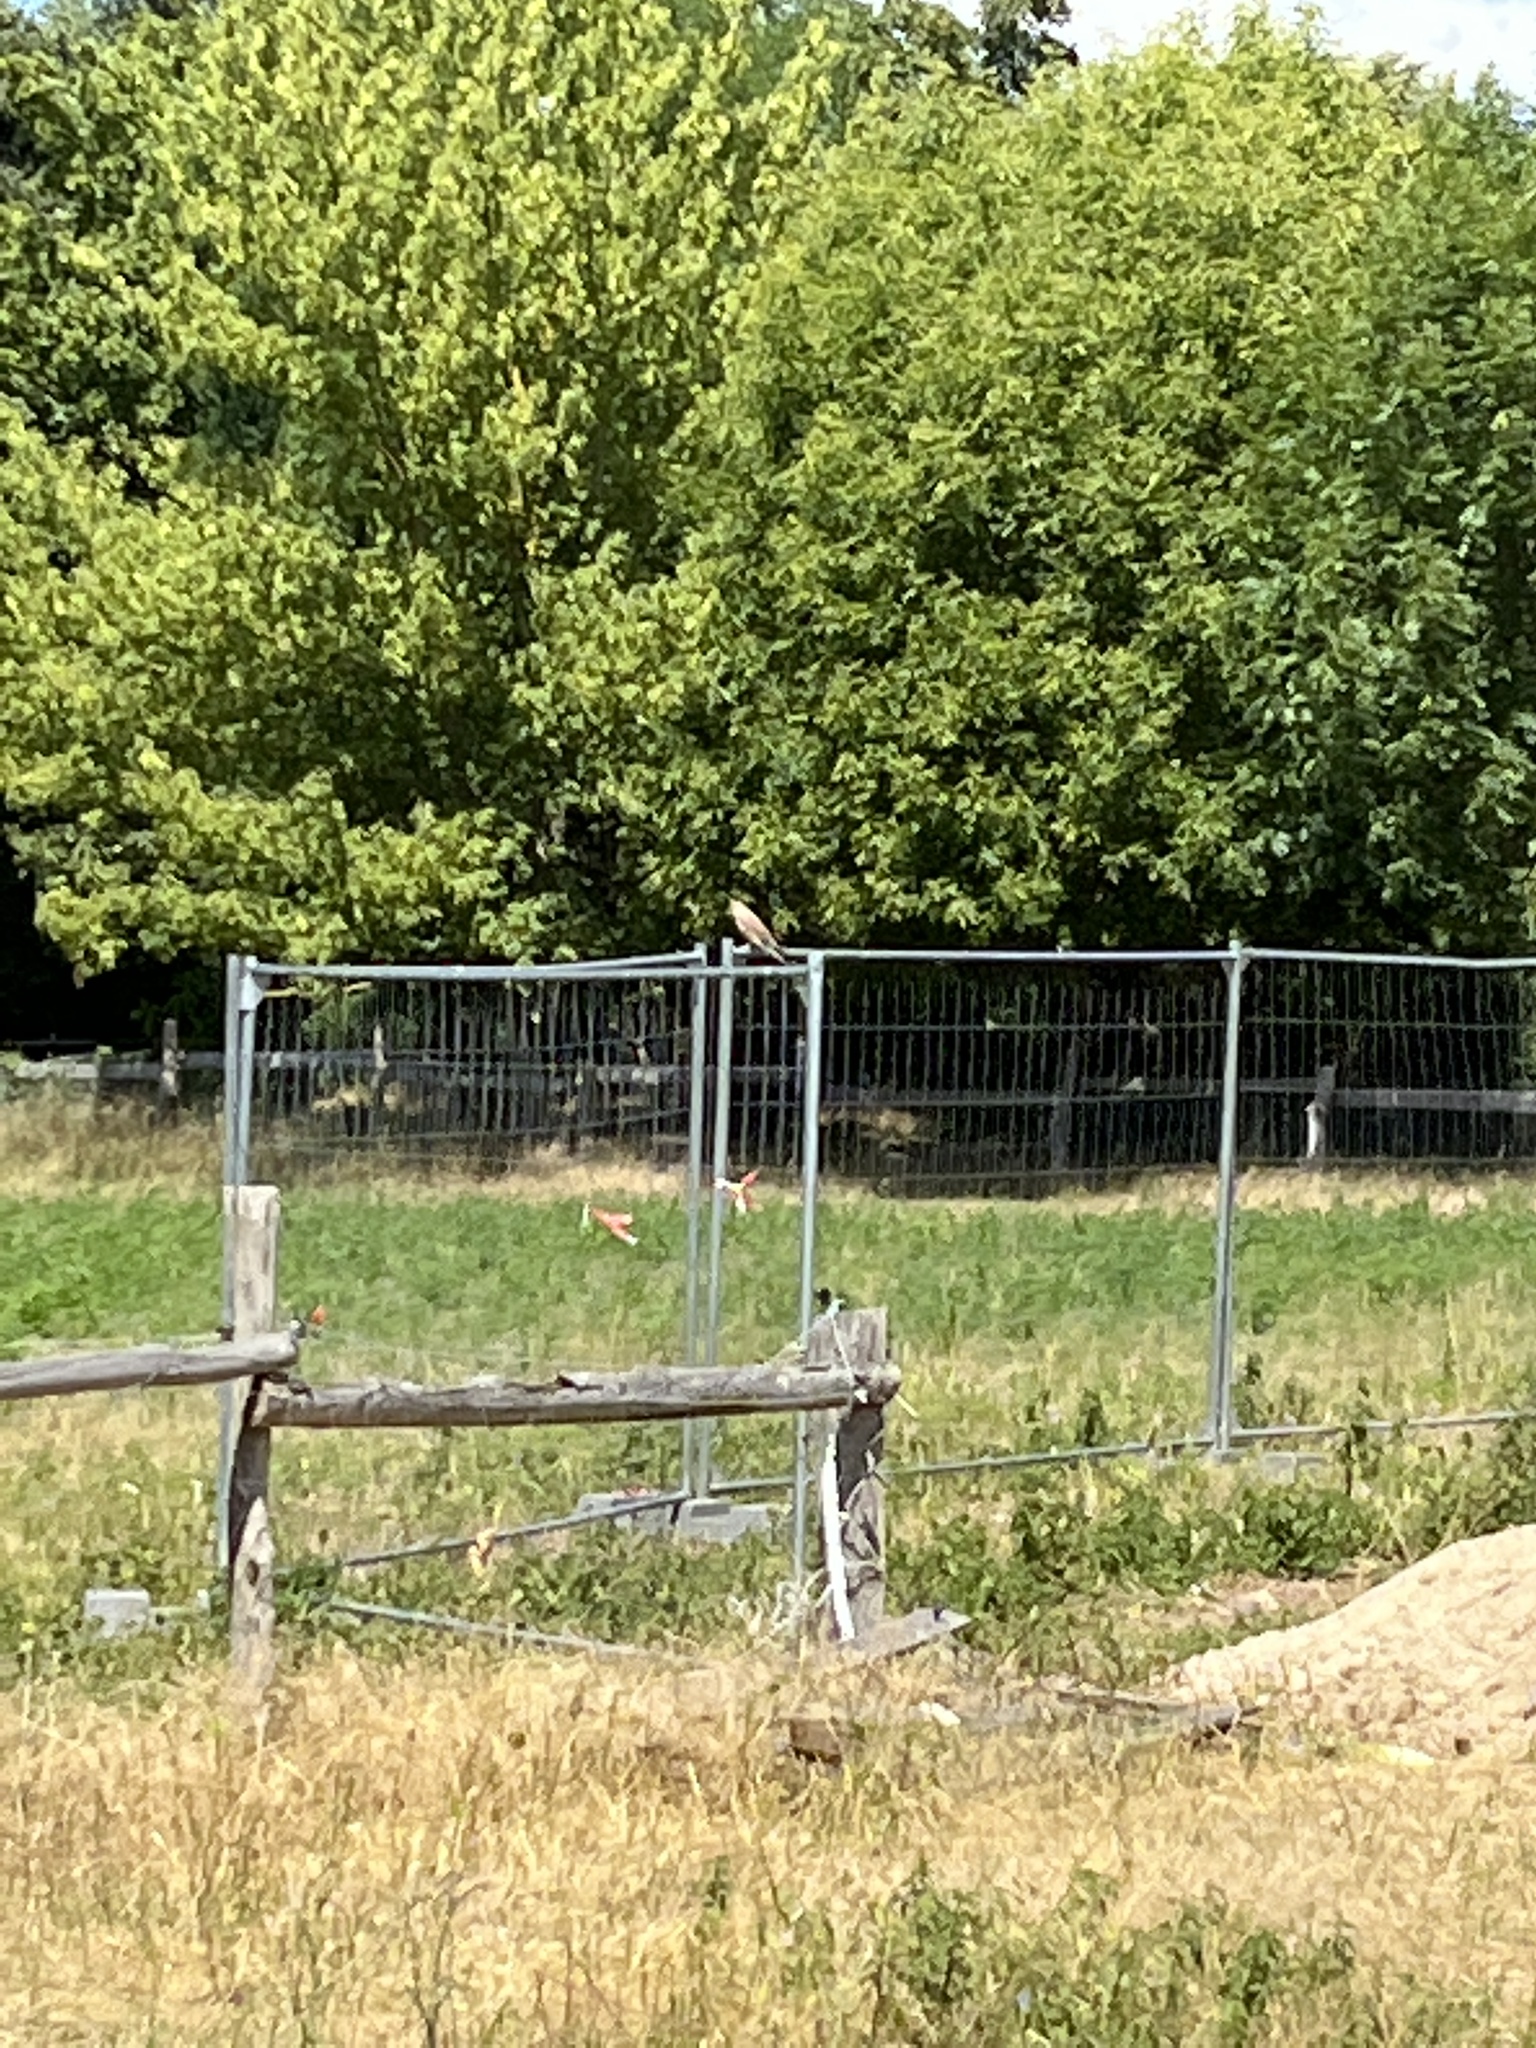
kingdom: Animalia
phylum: Chordata
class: Aves
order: Falconiformes
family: Falconidae
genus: Falco
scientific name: Falco tinnunculus
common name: Common kestrel
